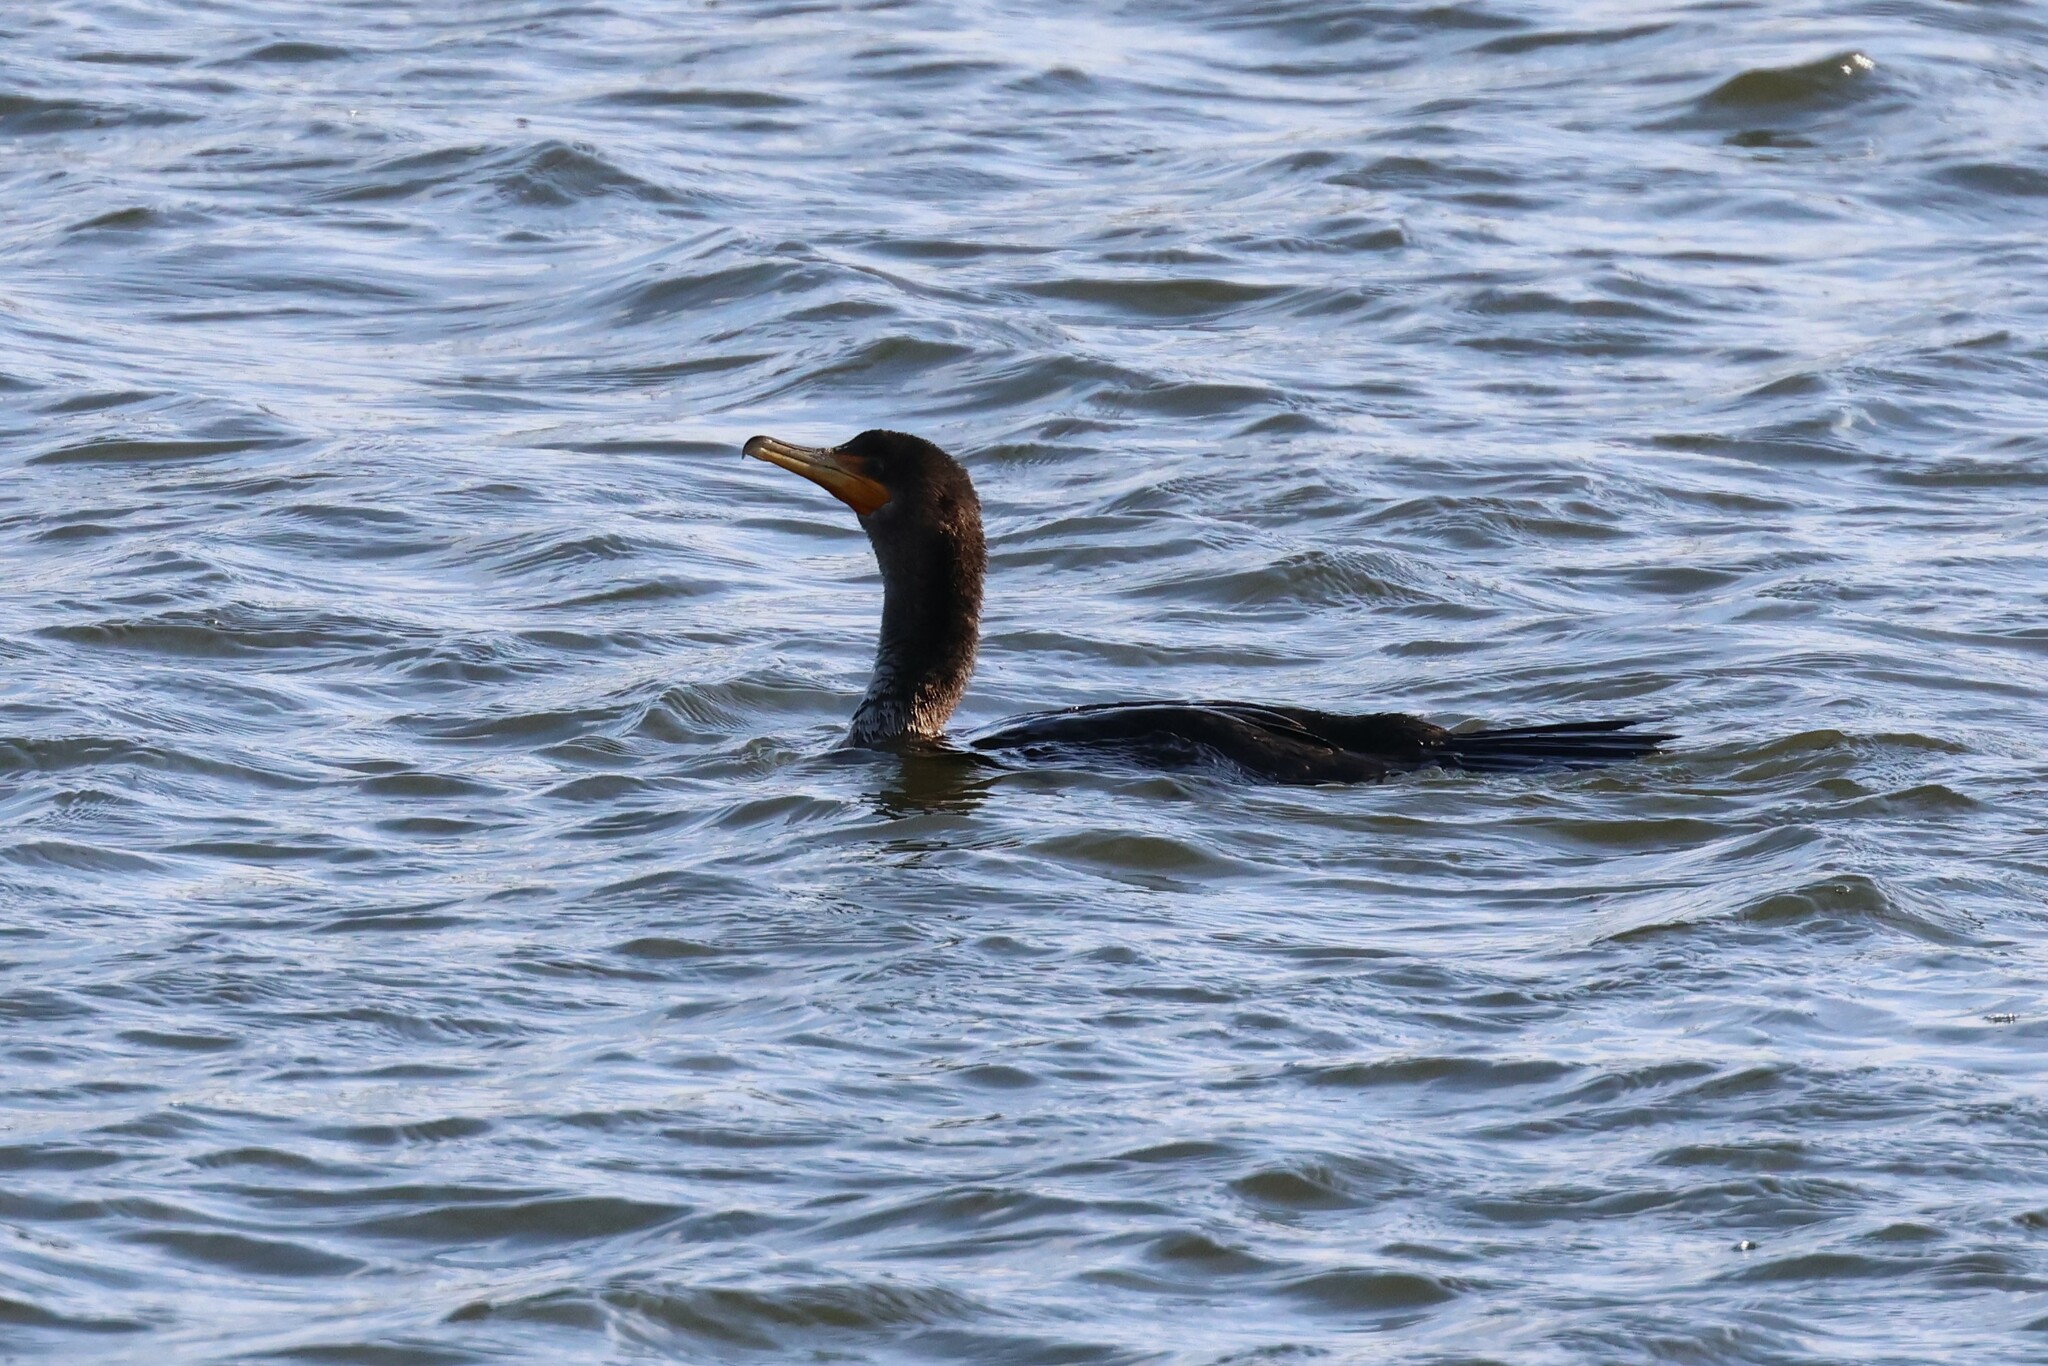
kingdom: Animalia
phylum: Chordata
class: Aves
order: Suliformes
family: Phalacrocoracidae
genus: Phalacrocorax
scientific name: Phalacrocorax auritus
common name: Double-crested cormorant
